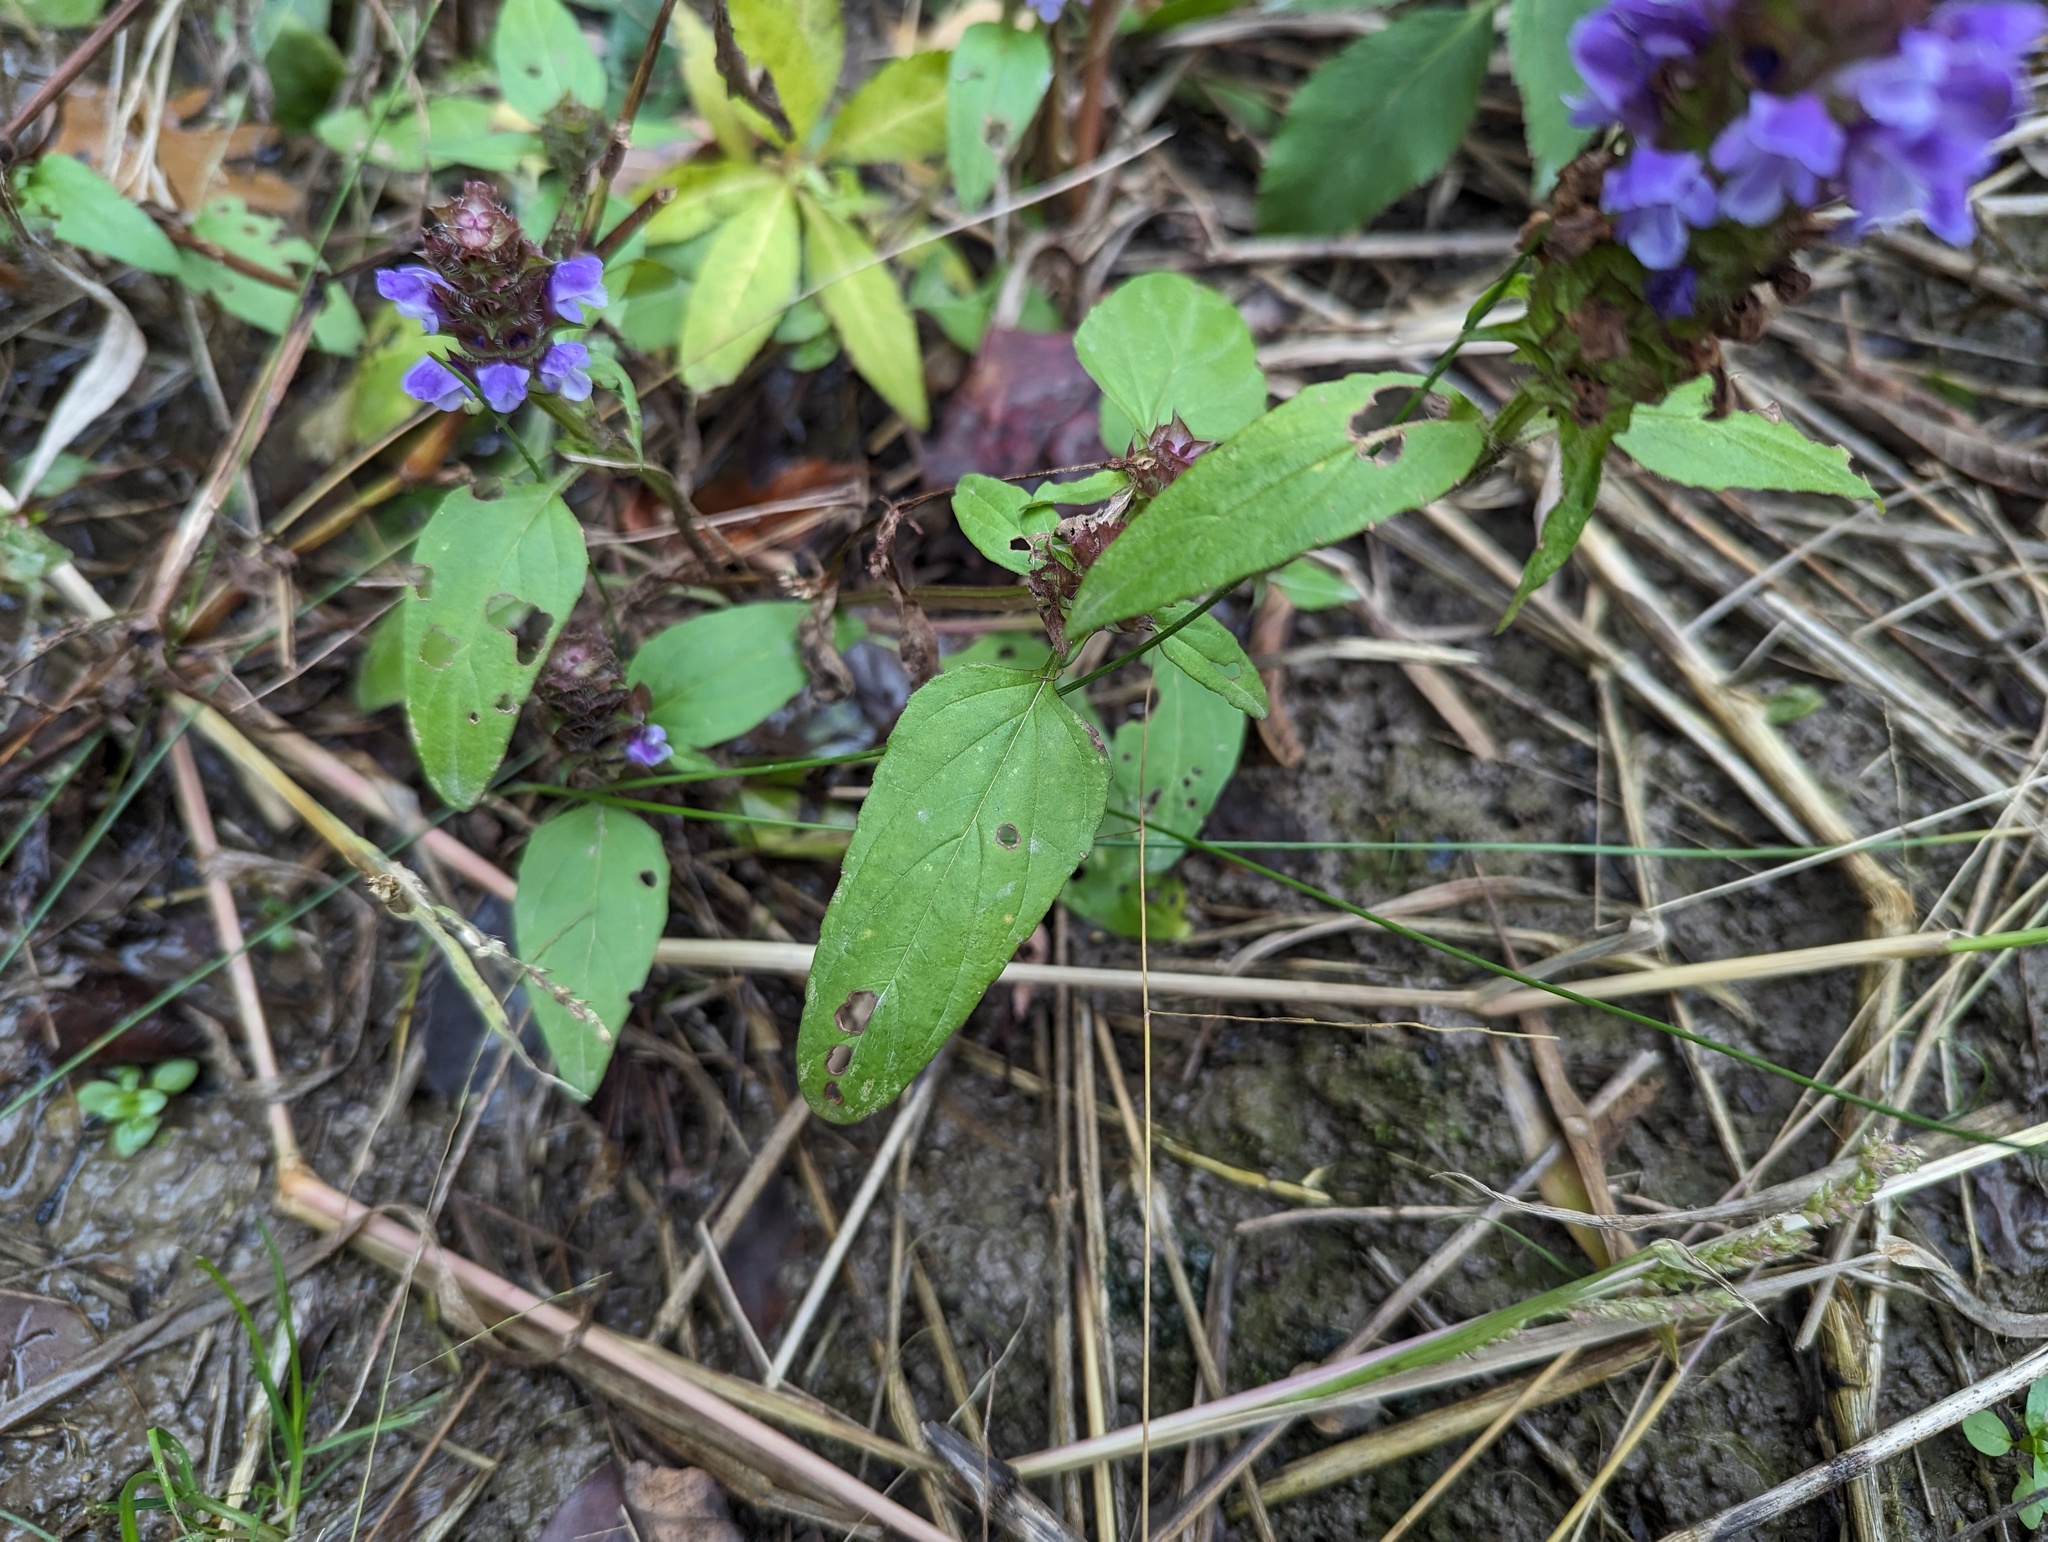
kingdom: Plantae
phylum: Tracheophyta
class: Magnoliopsida
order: Lamiales
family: Lamiaceae
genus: Prunella
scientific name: Prunella vulgaris
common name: Heal-all
